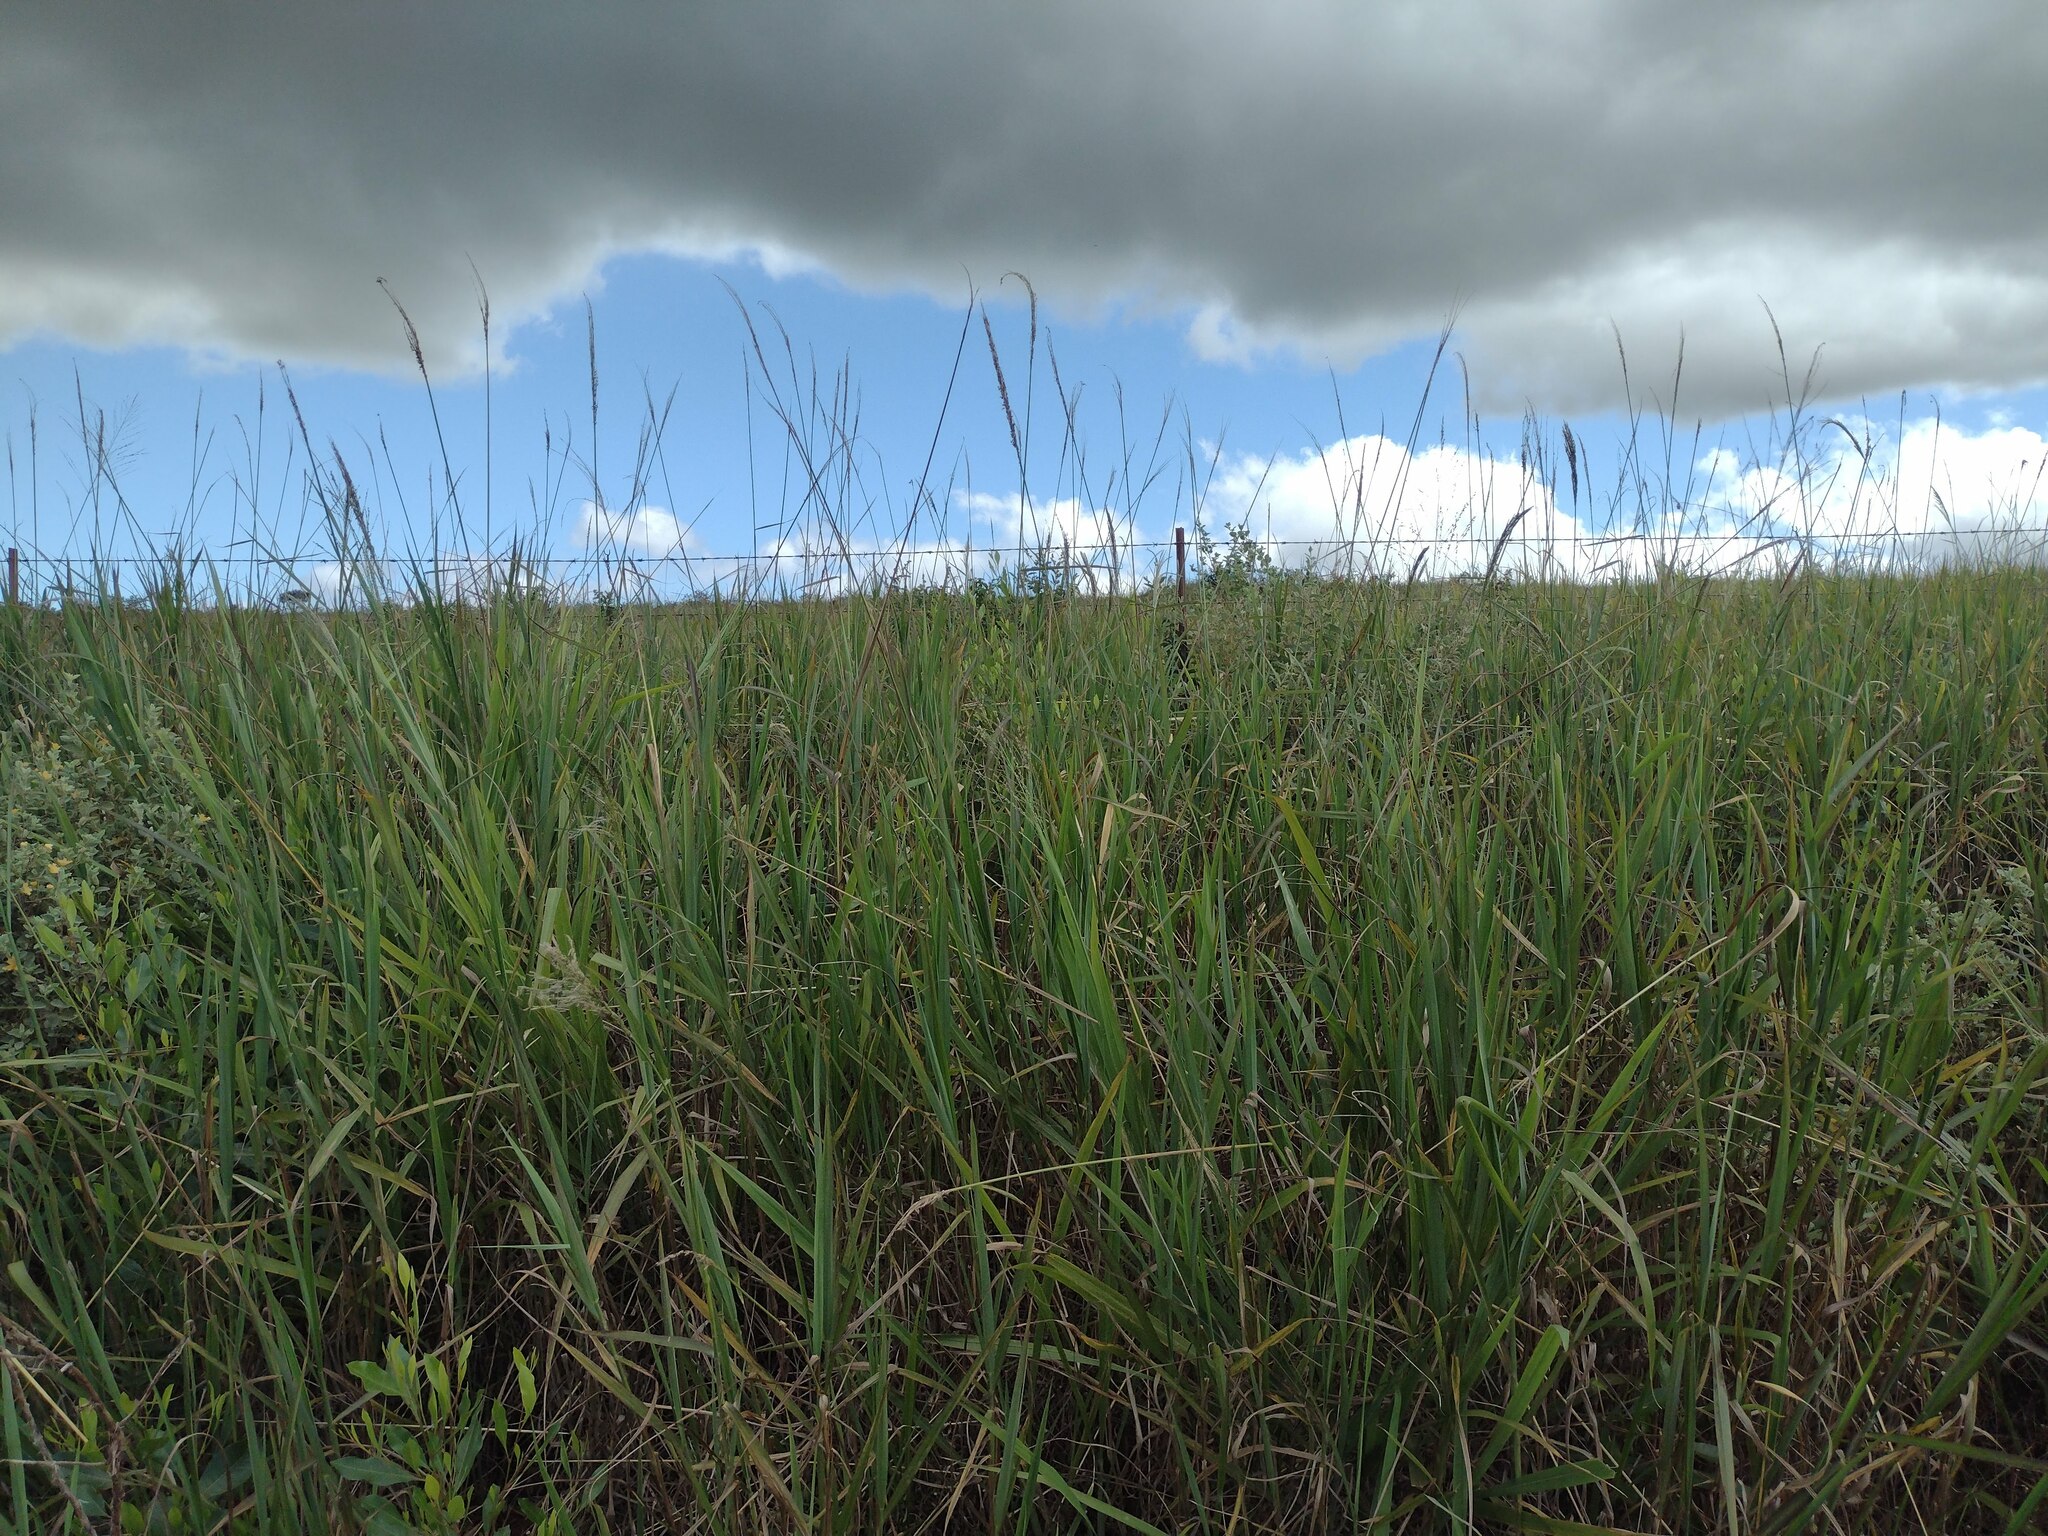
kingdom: Plantae
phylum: Tracheophyta
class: Liliopsida
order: Poales
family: Poaceae
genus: Digitaria
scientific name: Digitaria insularis
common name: Sourgrass
